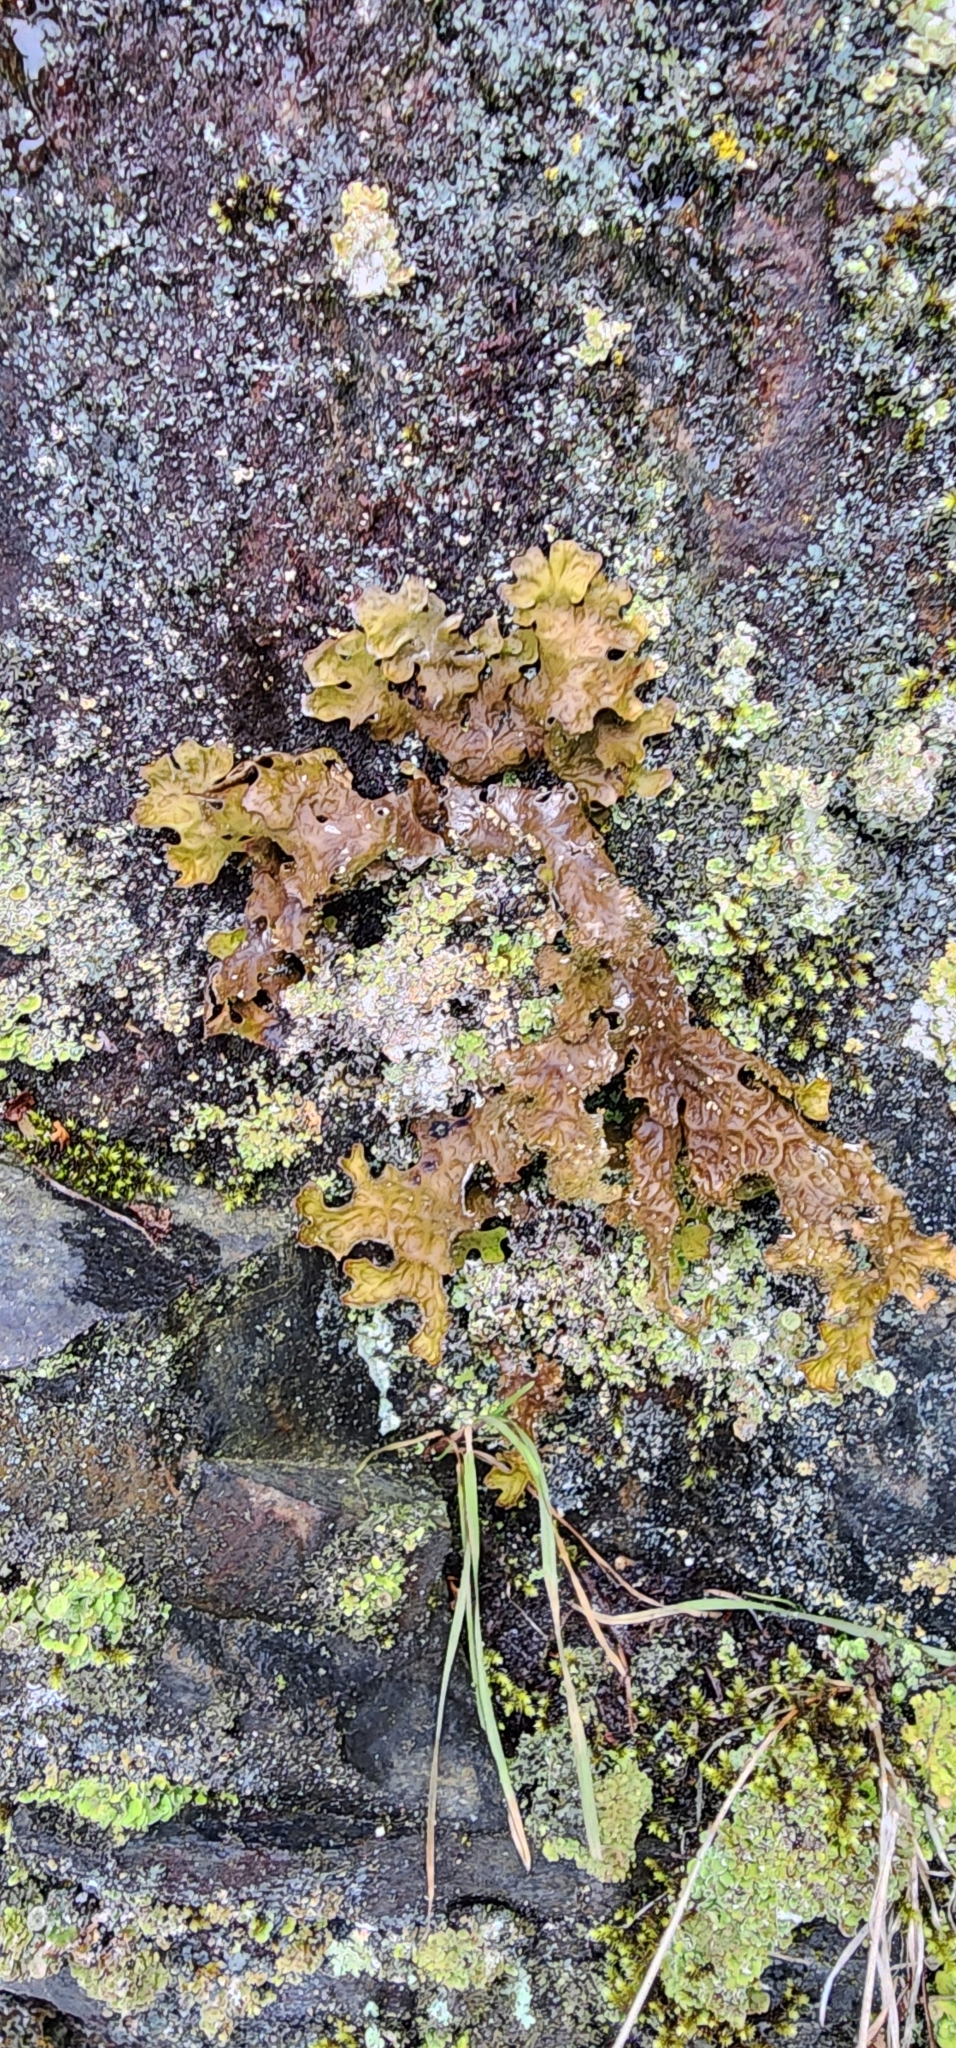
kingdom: Fungi
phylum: Ascomycota
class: Lecanoromycetes
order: Peltigerales
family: Lobariaceae
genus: Lobaria
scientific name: Lobaria pulmonaria
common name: Lungwort
